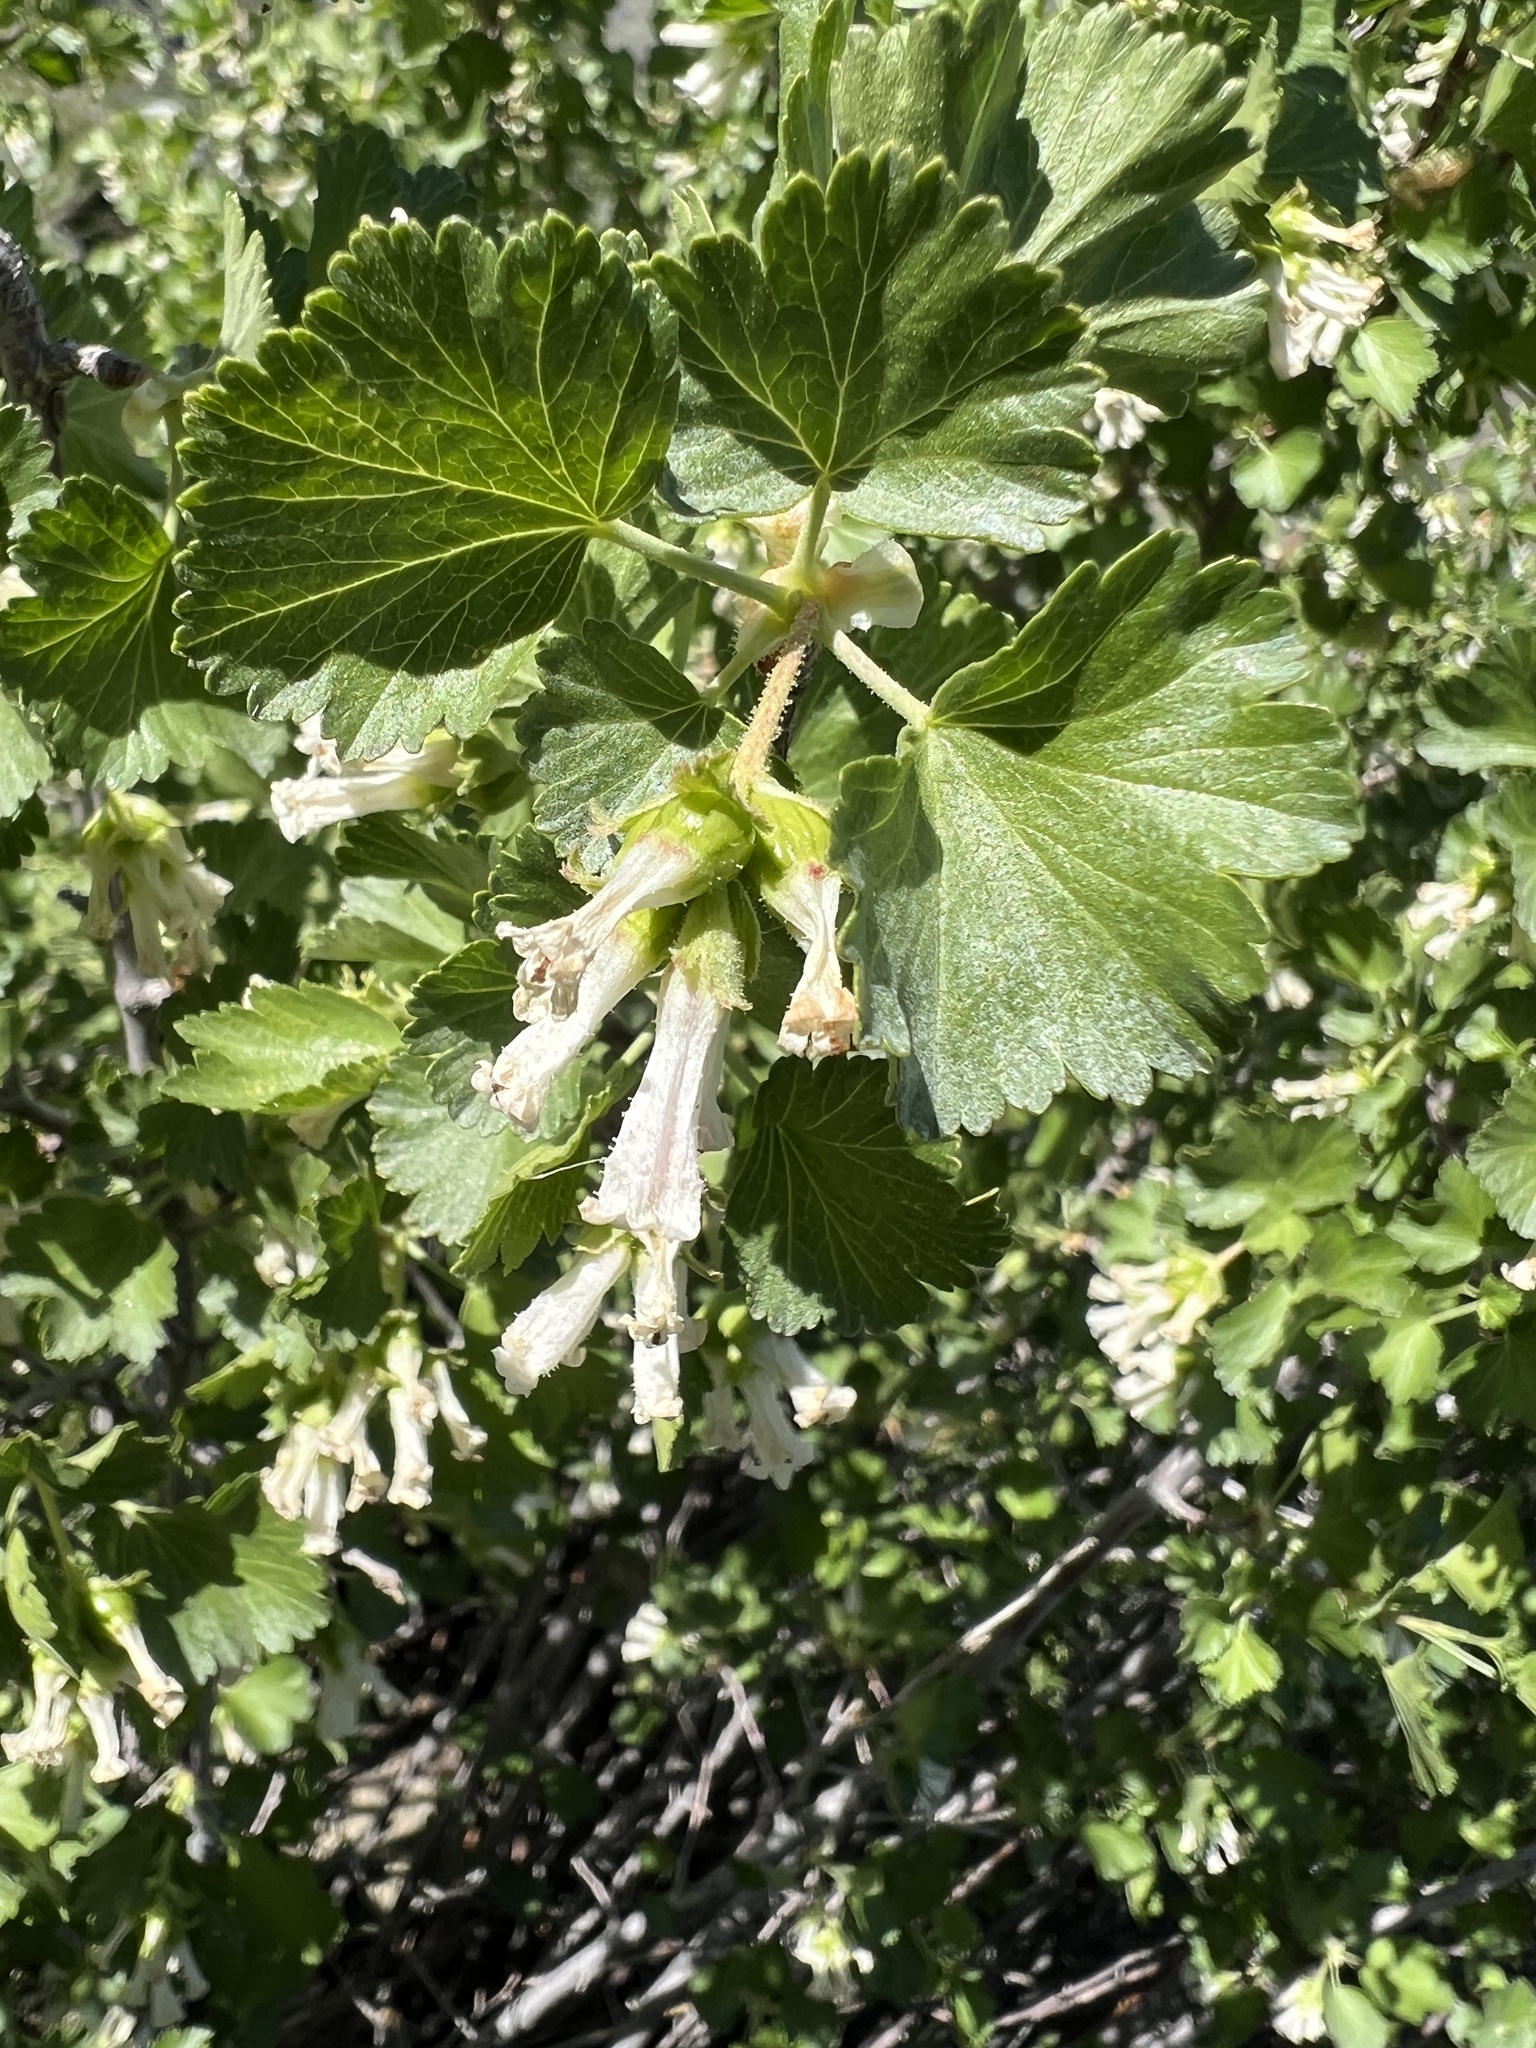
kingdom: Plantae
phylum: Tracheophyta
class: Magnoliopsida
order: Saxifragales
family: Grossulariaceae
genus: Ribes
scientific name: Ribes cereum
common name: Wax currant
